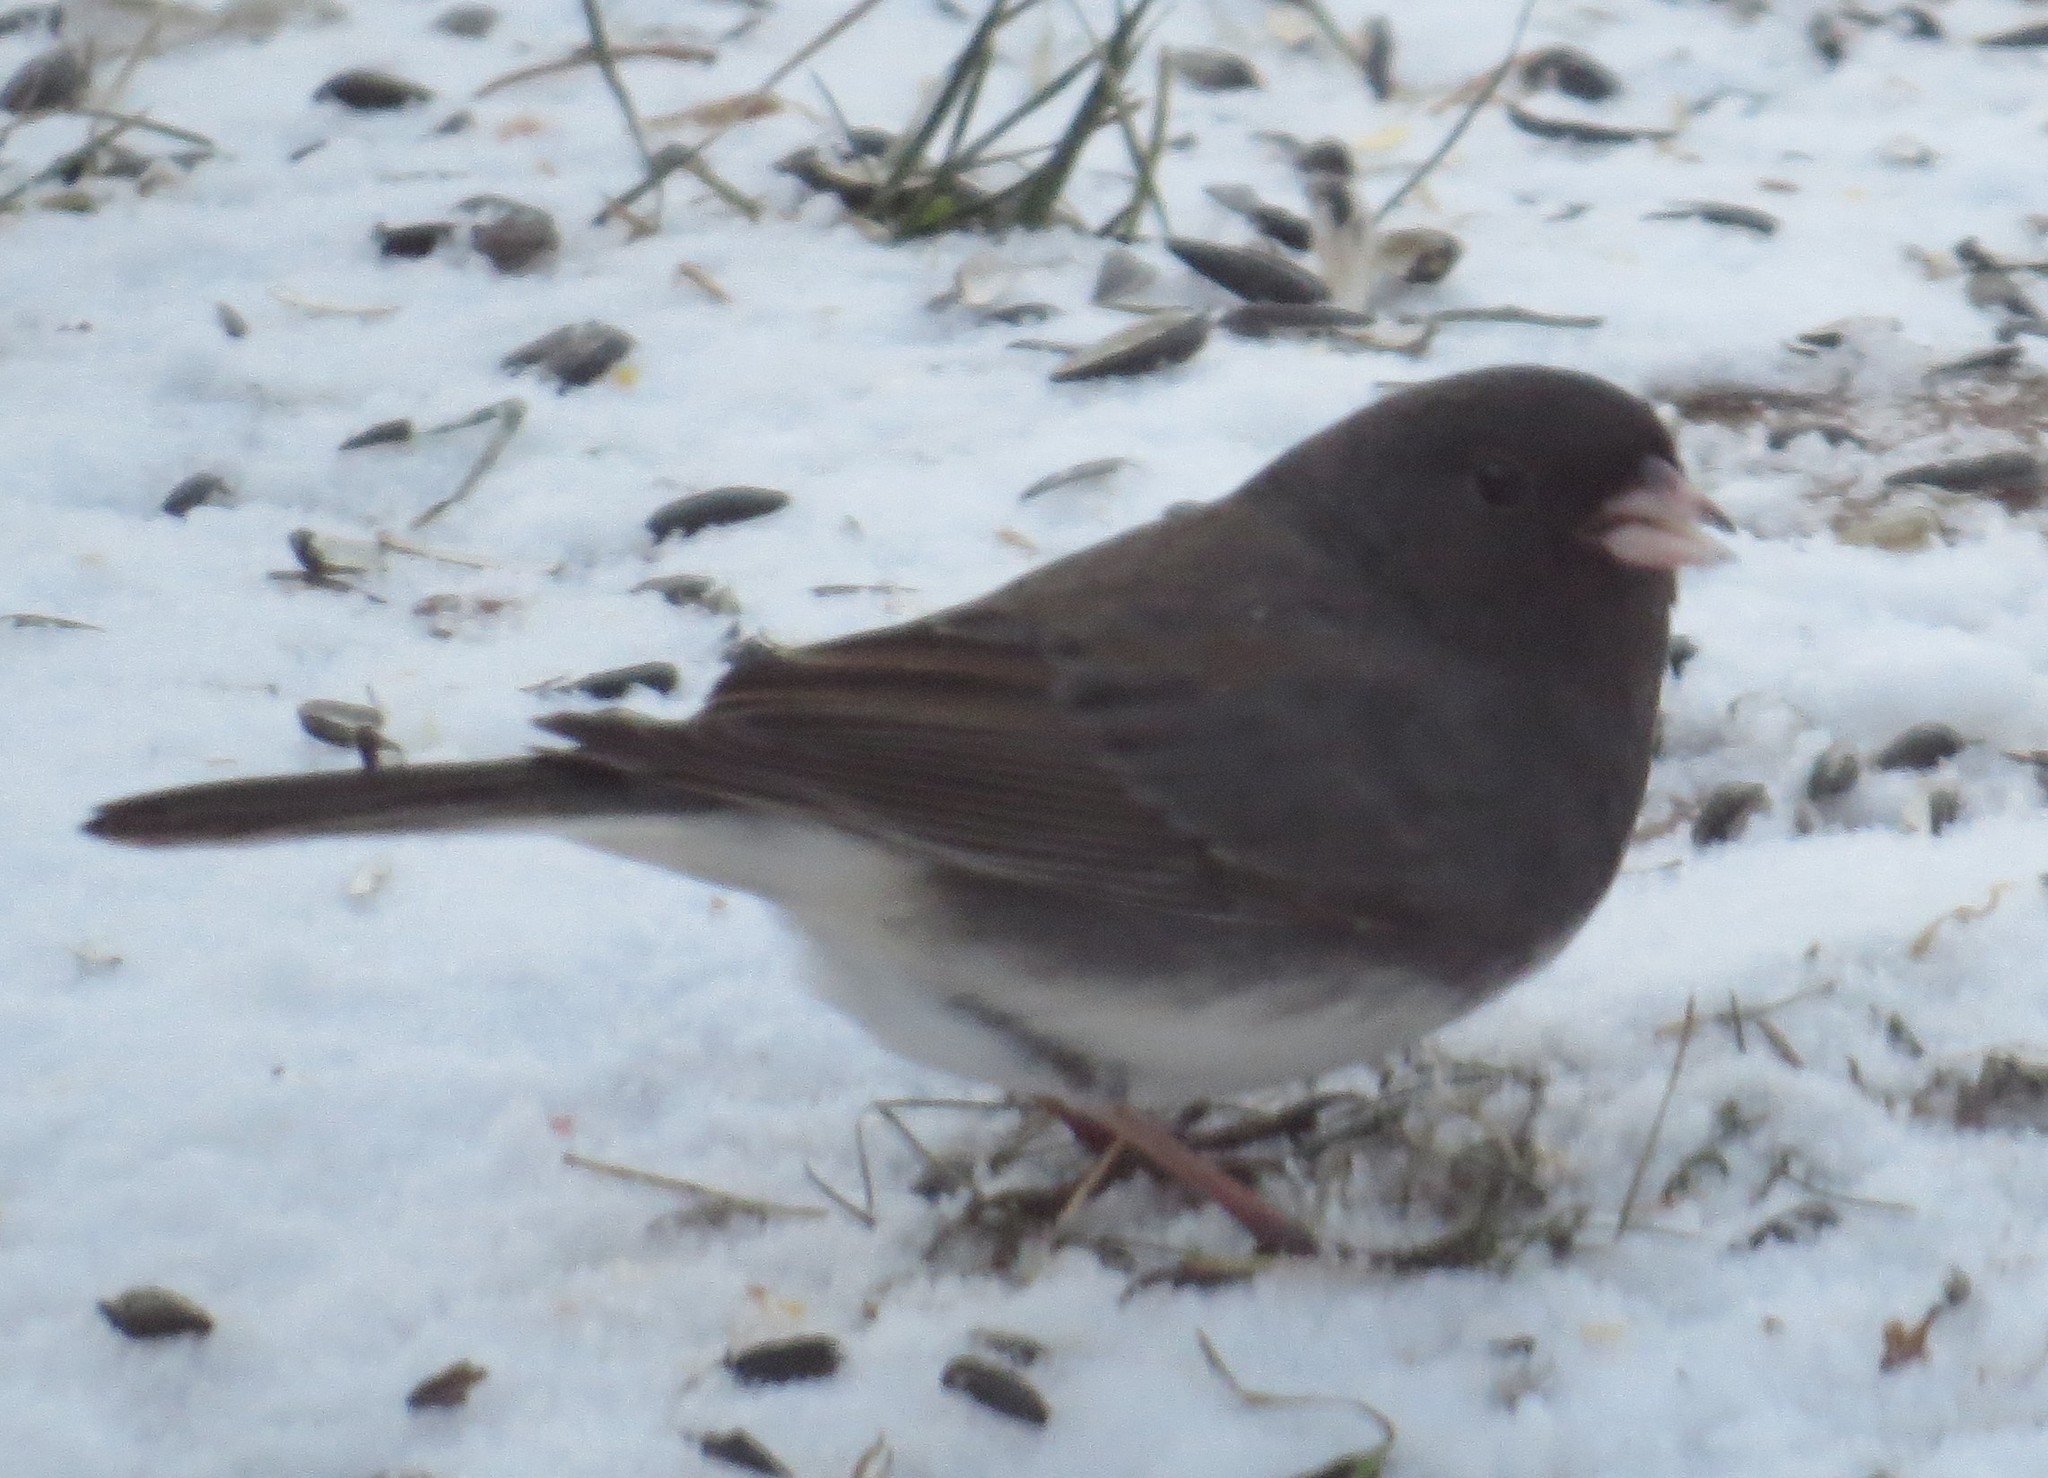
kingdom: Animalia
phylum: Chordata
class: Aves
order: Passeriformes
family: Passerellidae
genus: Junco
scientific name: Junco hyemalis
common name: Dark-eyed junco
